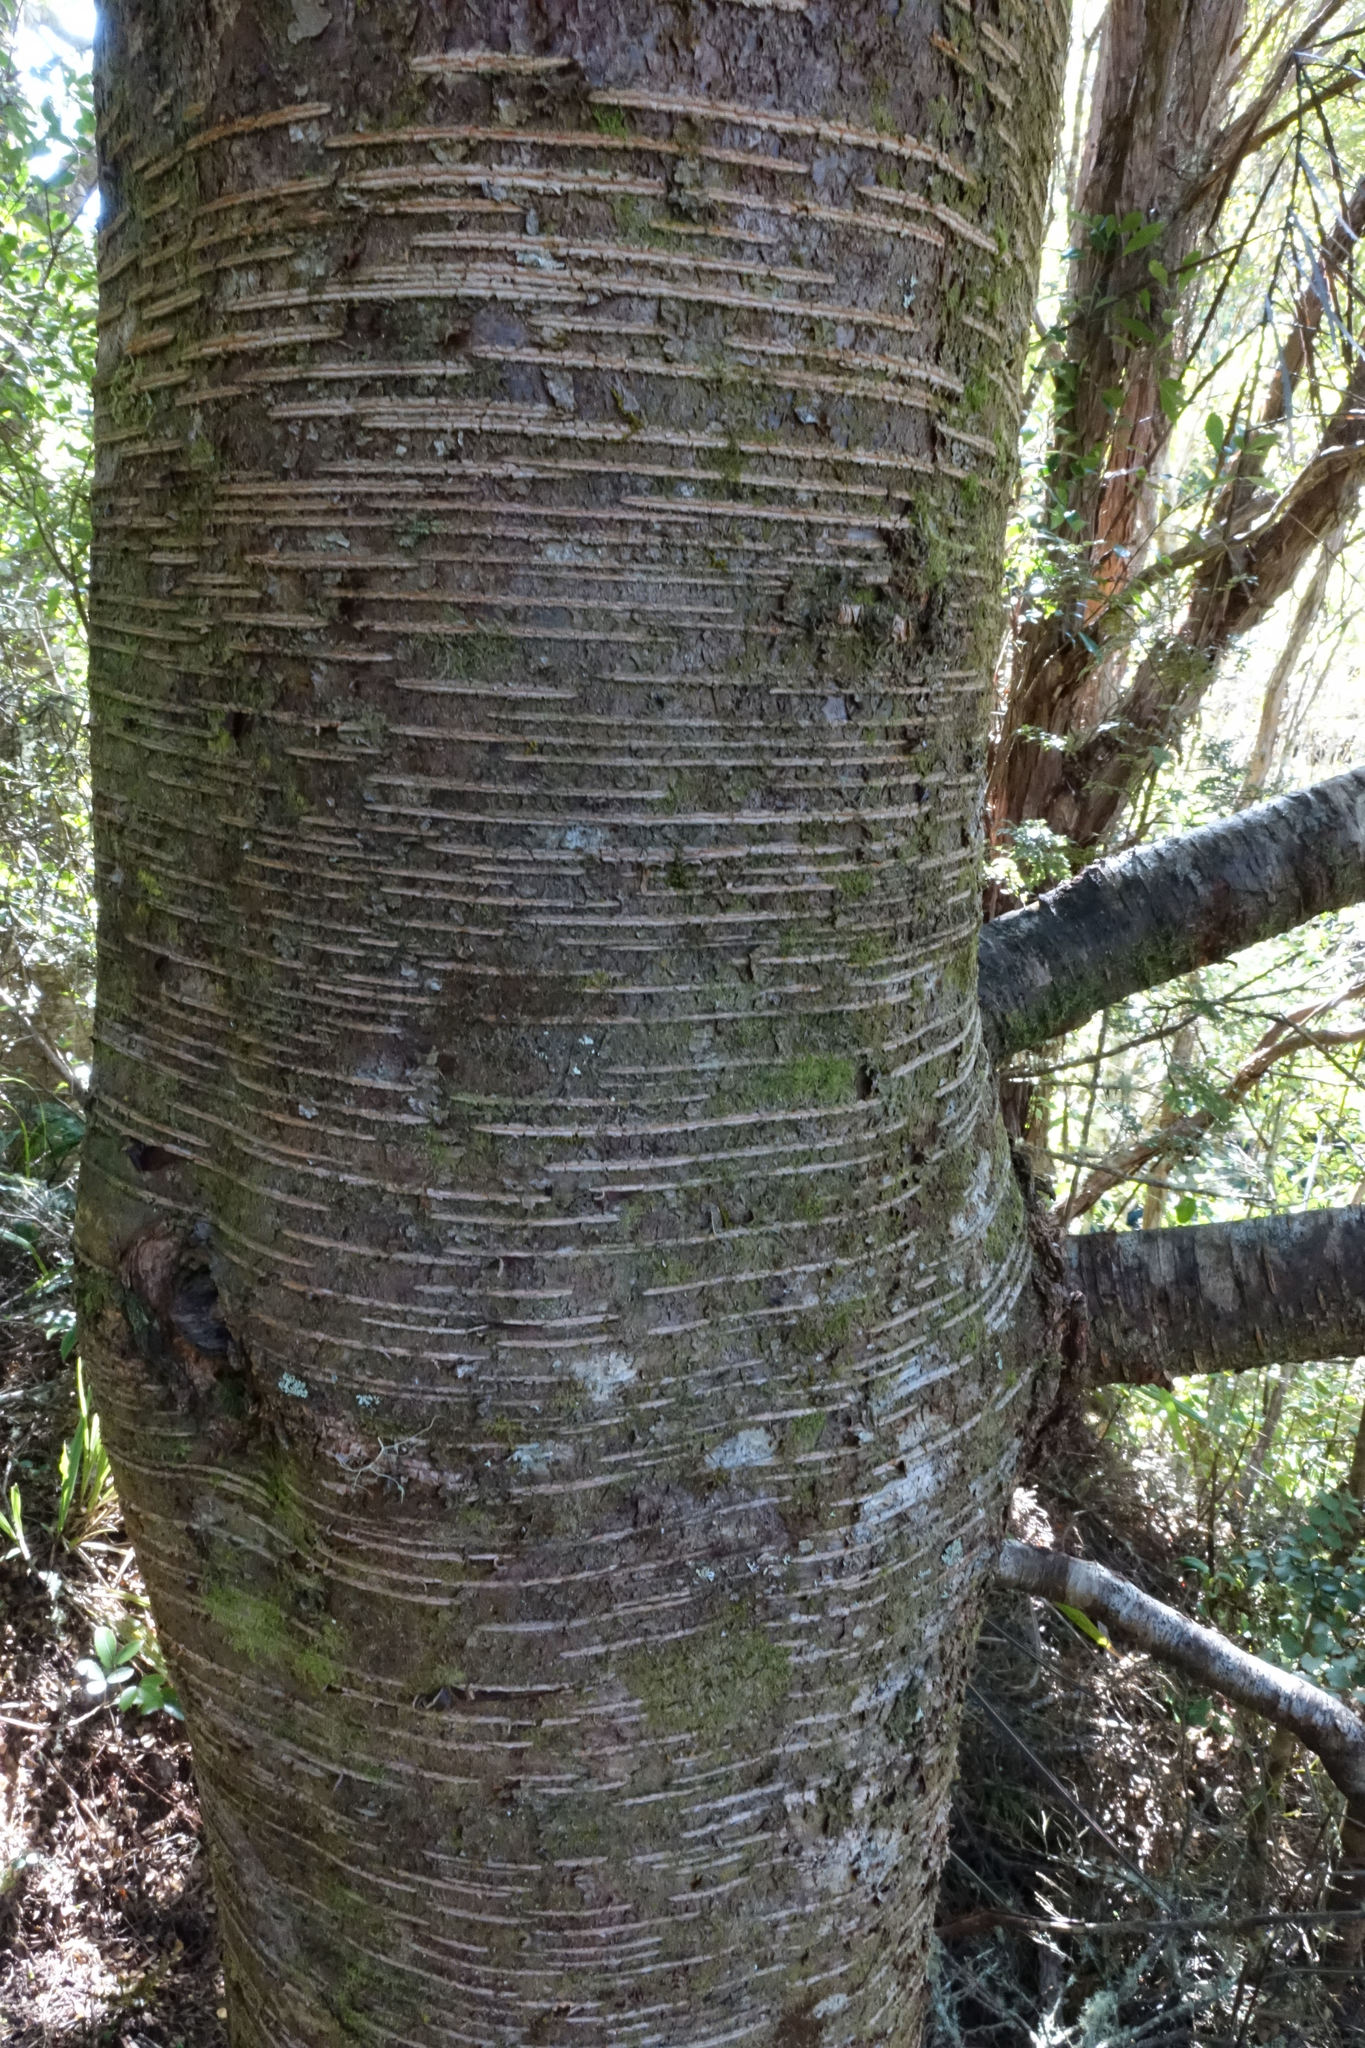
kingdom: Plantae
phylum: Tracheophyta
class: Magnoliopsida
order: Fagales
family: Nothofagaceae
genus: Nothofagus
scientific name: Nothofagus menziesii
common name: Silver beech
